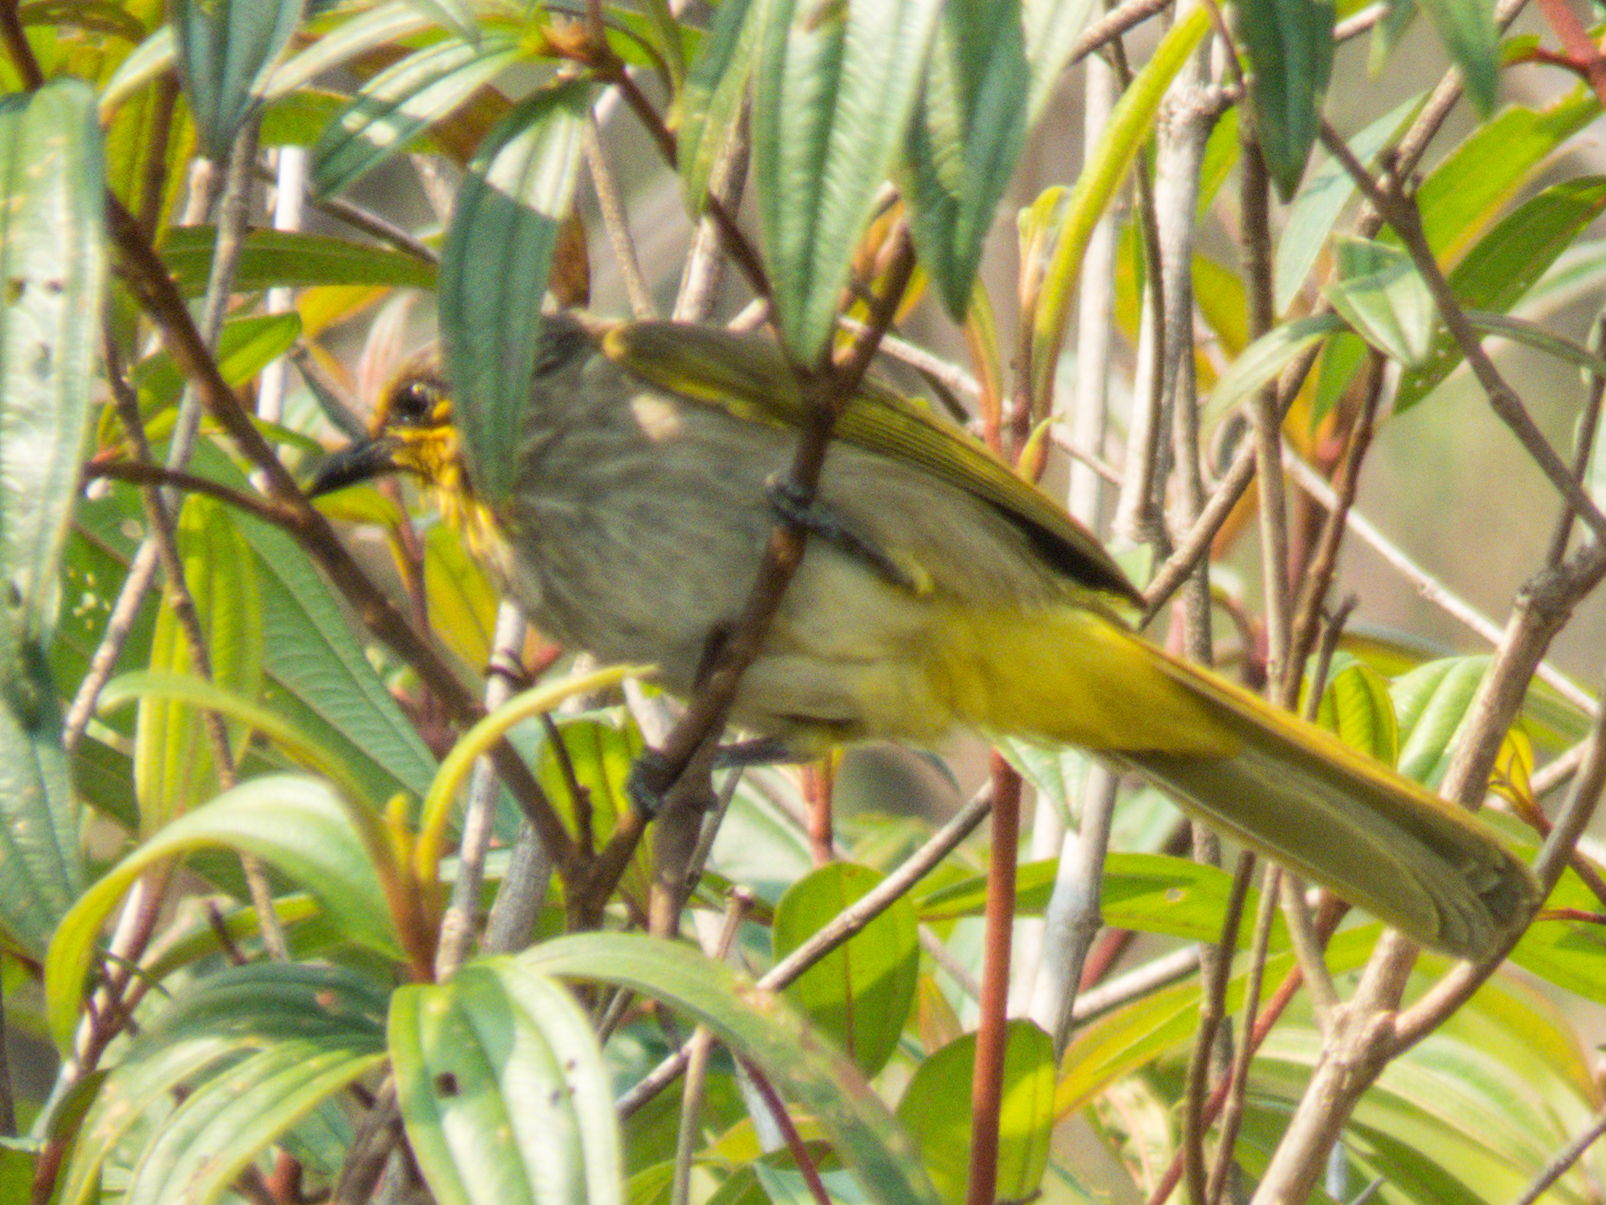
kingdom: Animalia
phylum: Chordata
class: Aves
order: Passeriformes
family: Pycnonotidae
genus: Pycnonotus
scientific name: Pycnonotus finlaysoni
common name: Stripe-throated bulbul
